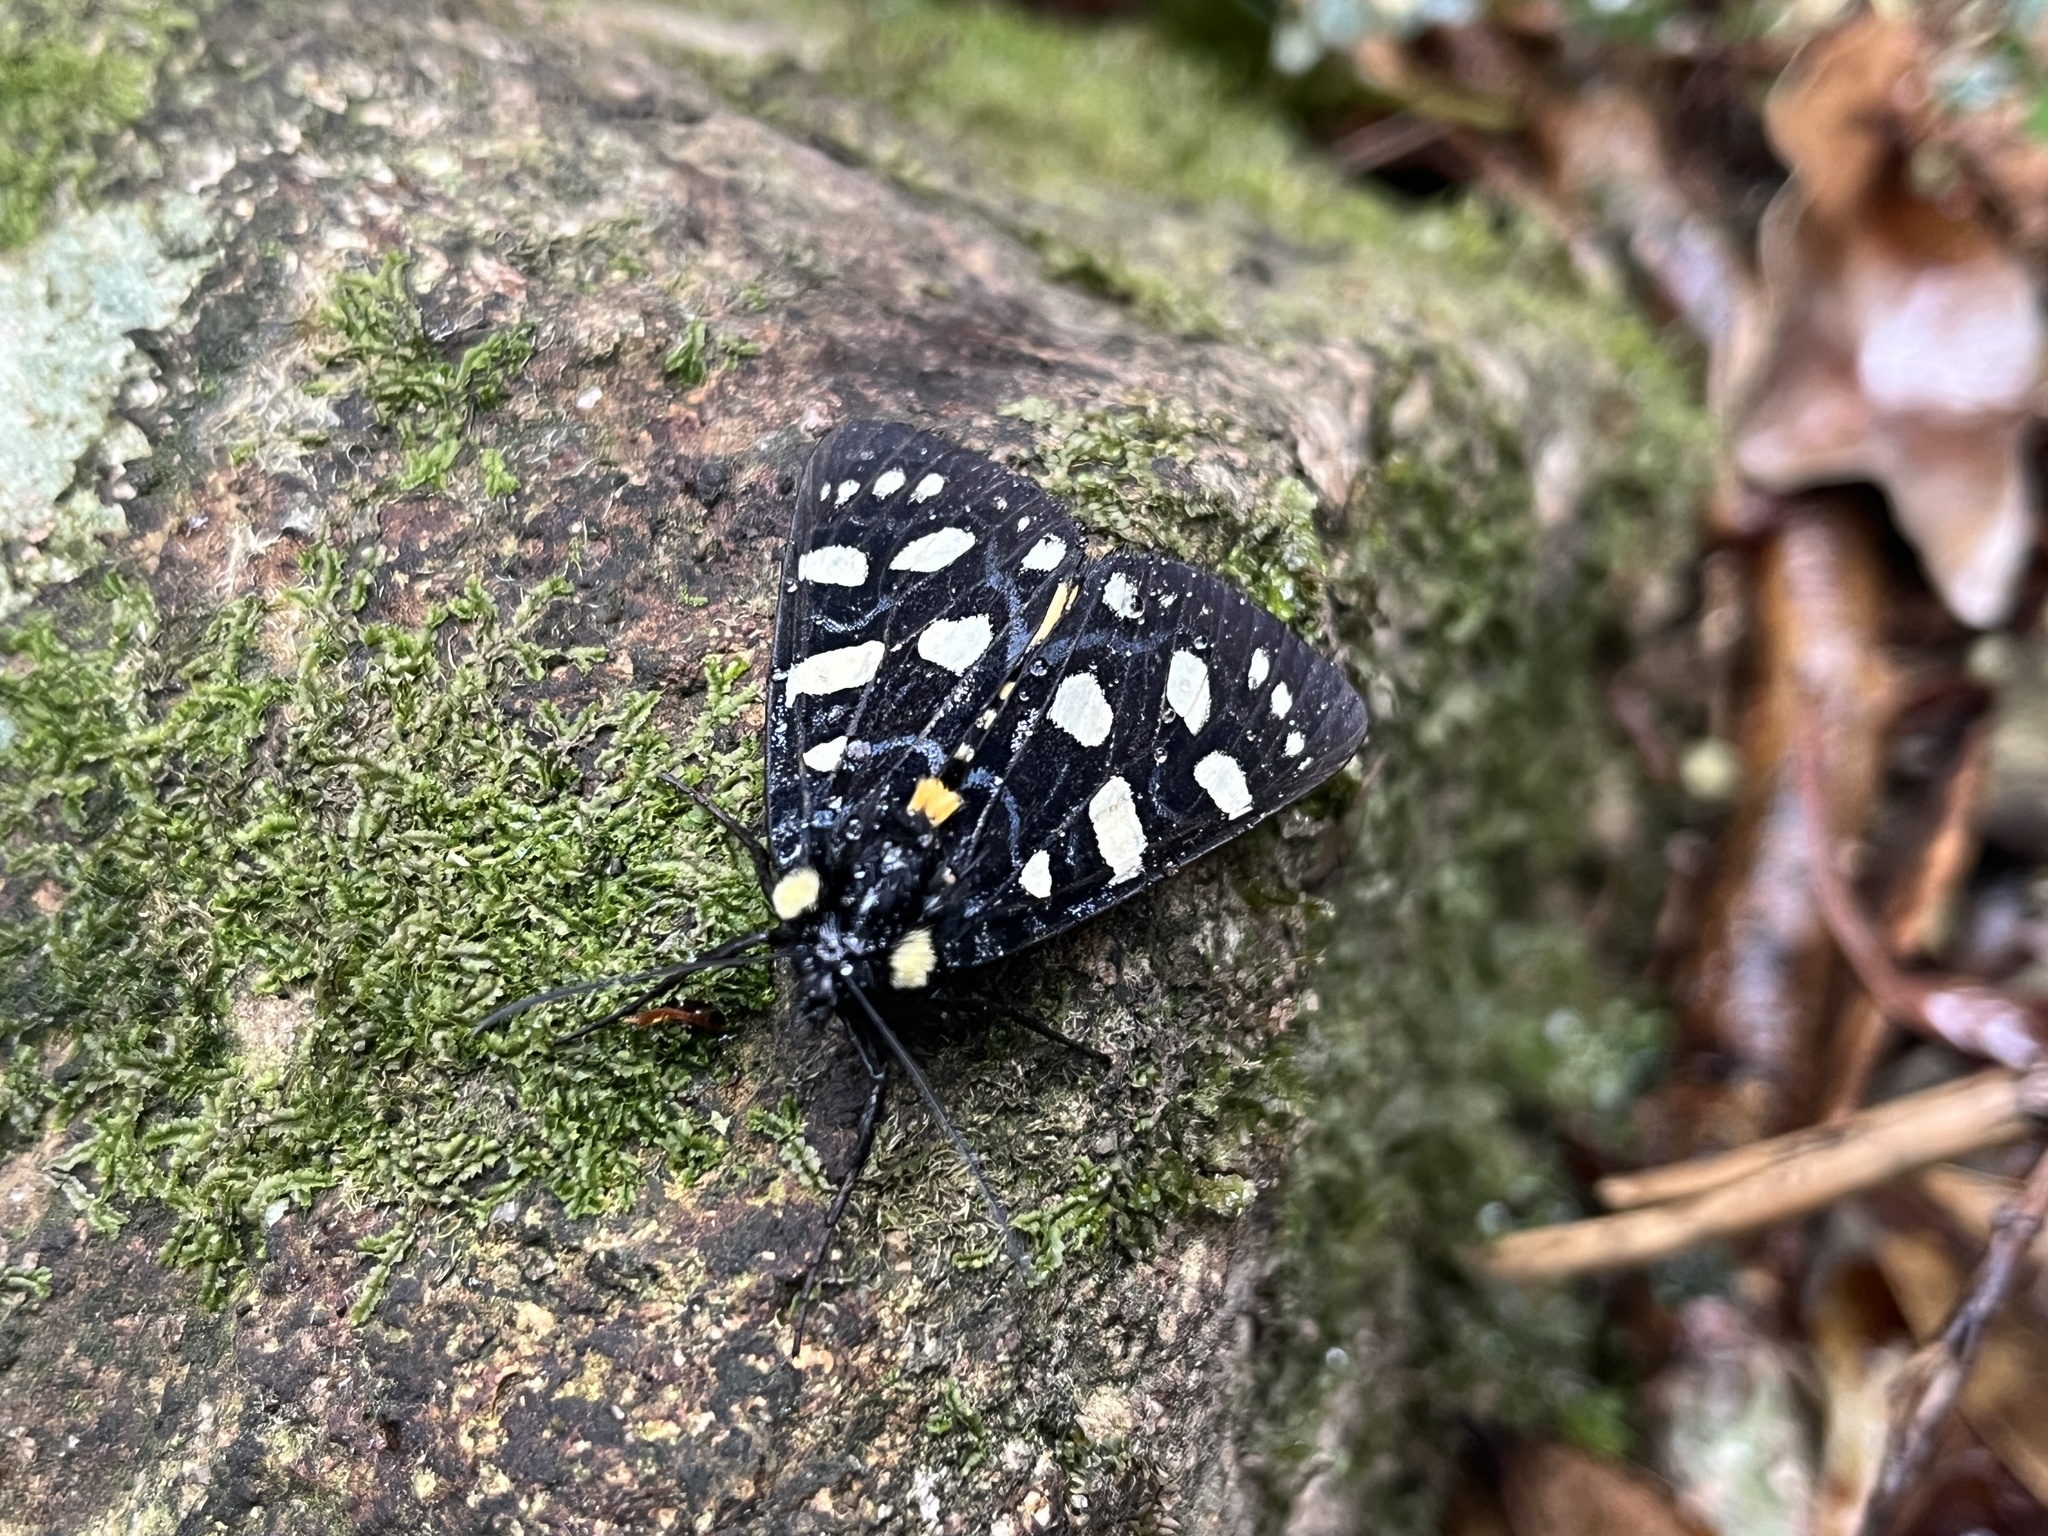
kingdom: Animalia
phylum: Arthropoda
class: Insecta
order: Lepidoptera
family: Noctuidae
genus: Chelonomorpha
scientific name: Chelonomorpha japana
